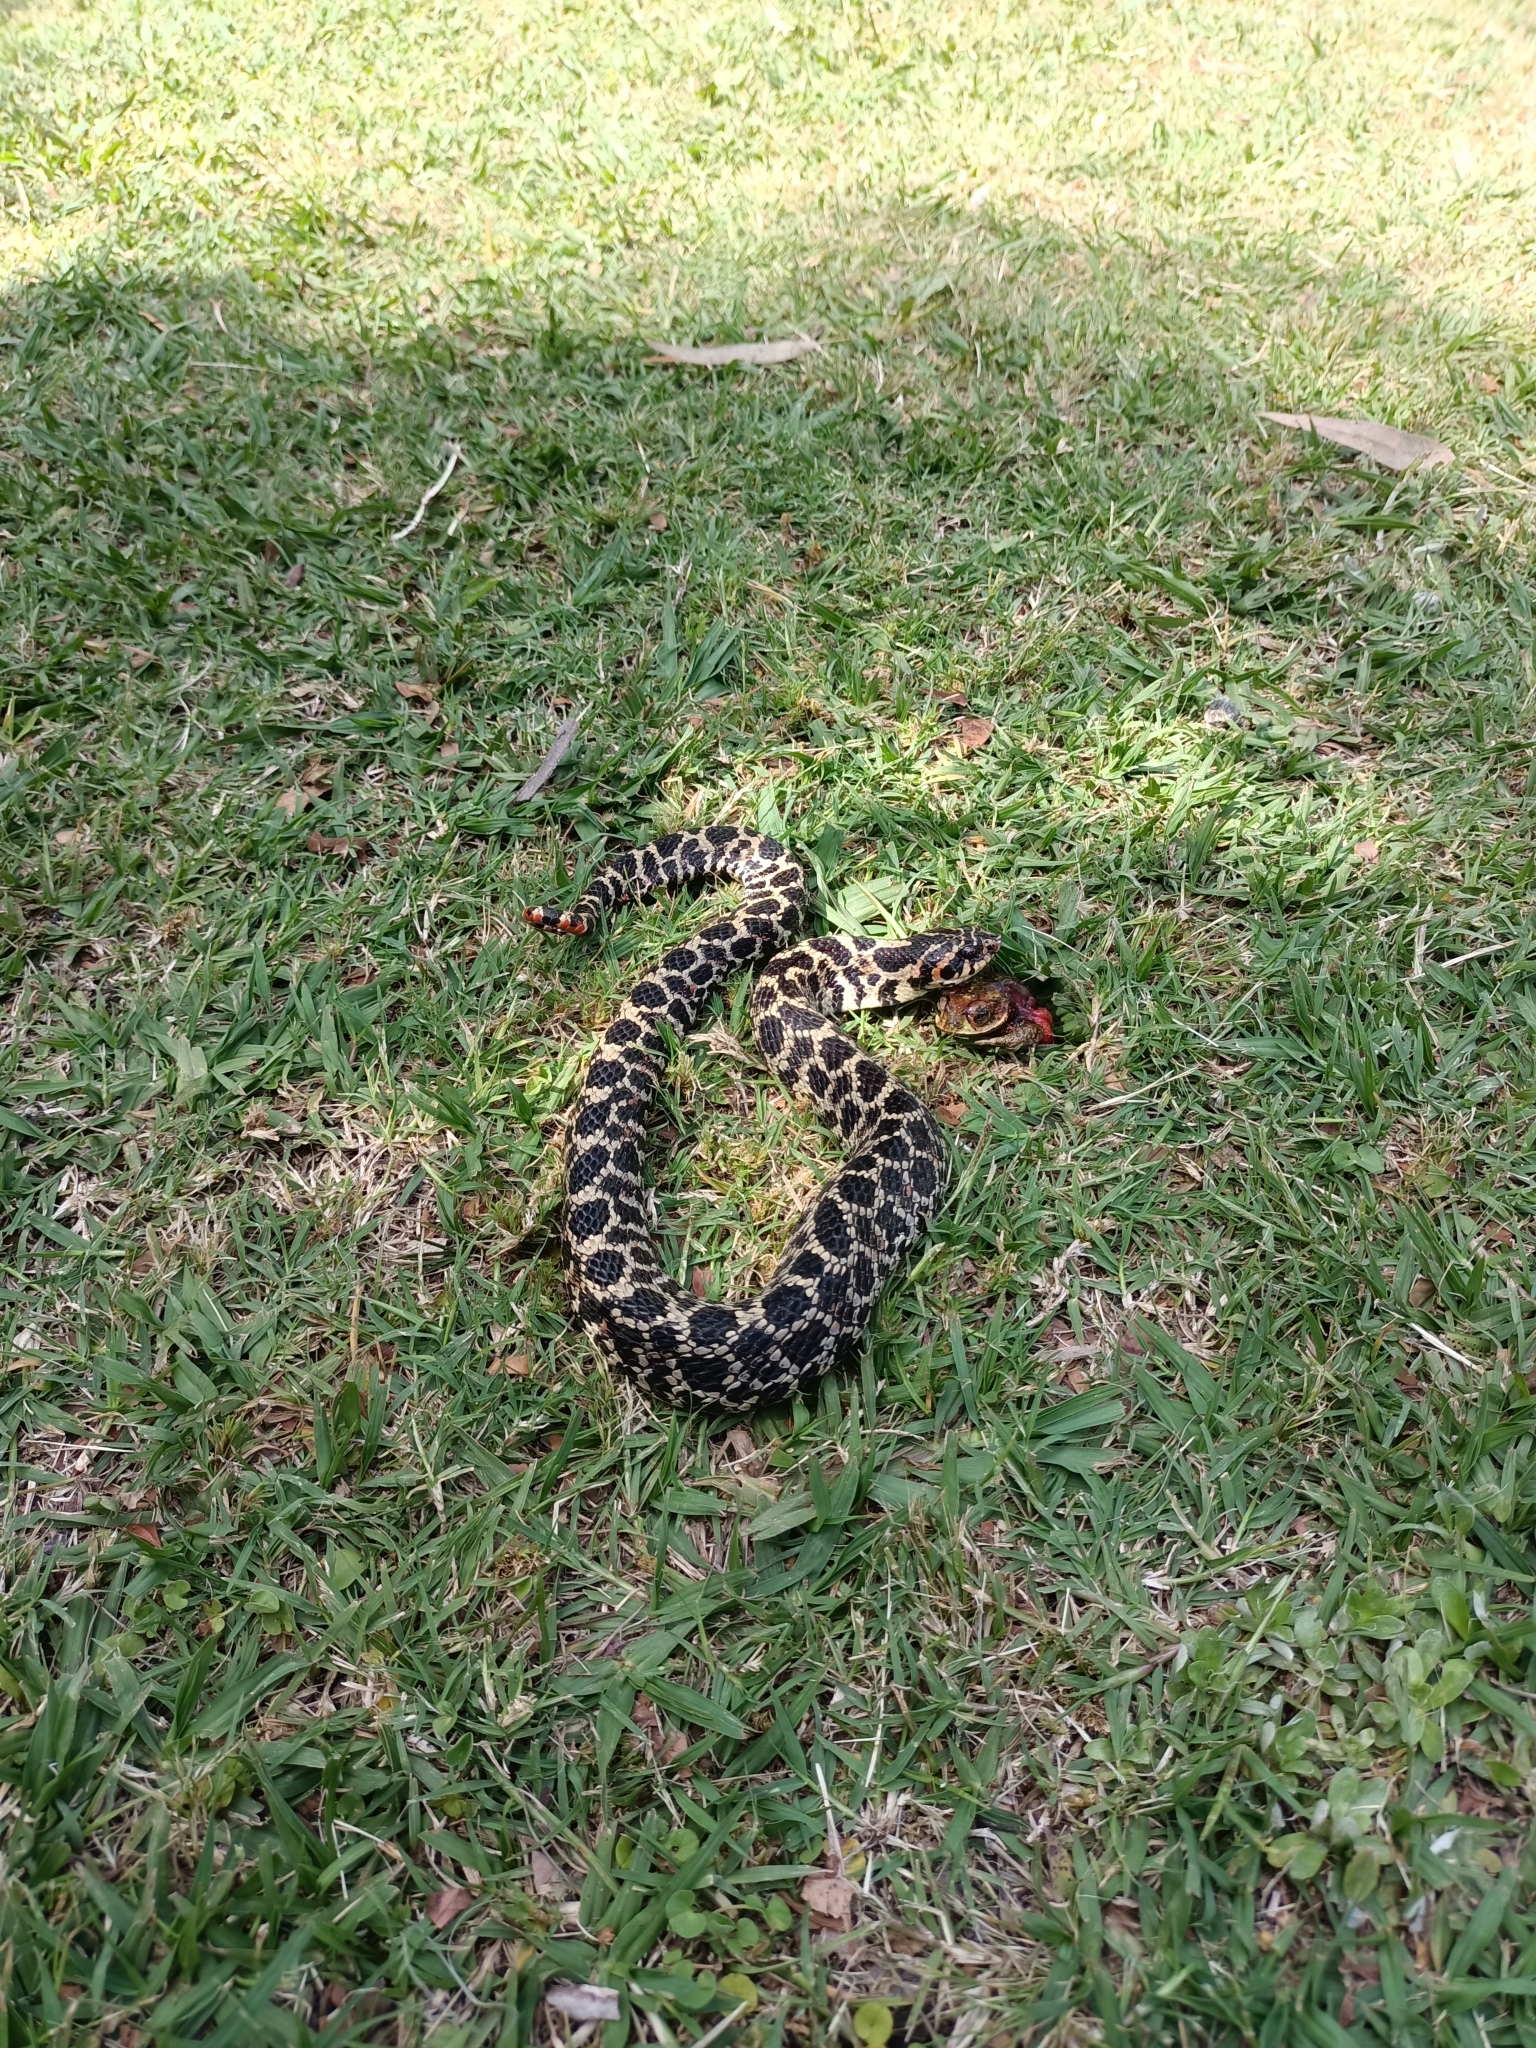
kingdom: Animalia
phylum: Chordata
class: Squamata
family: Colubridae
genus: Xenodon
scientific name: Xenodon dorbignyi
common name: South american hognose snake
